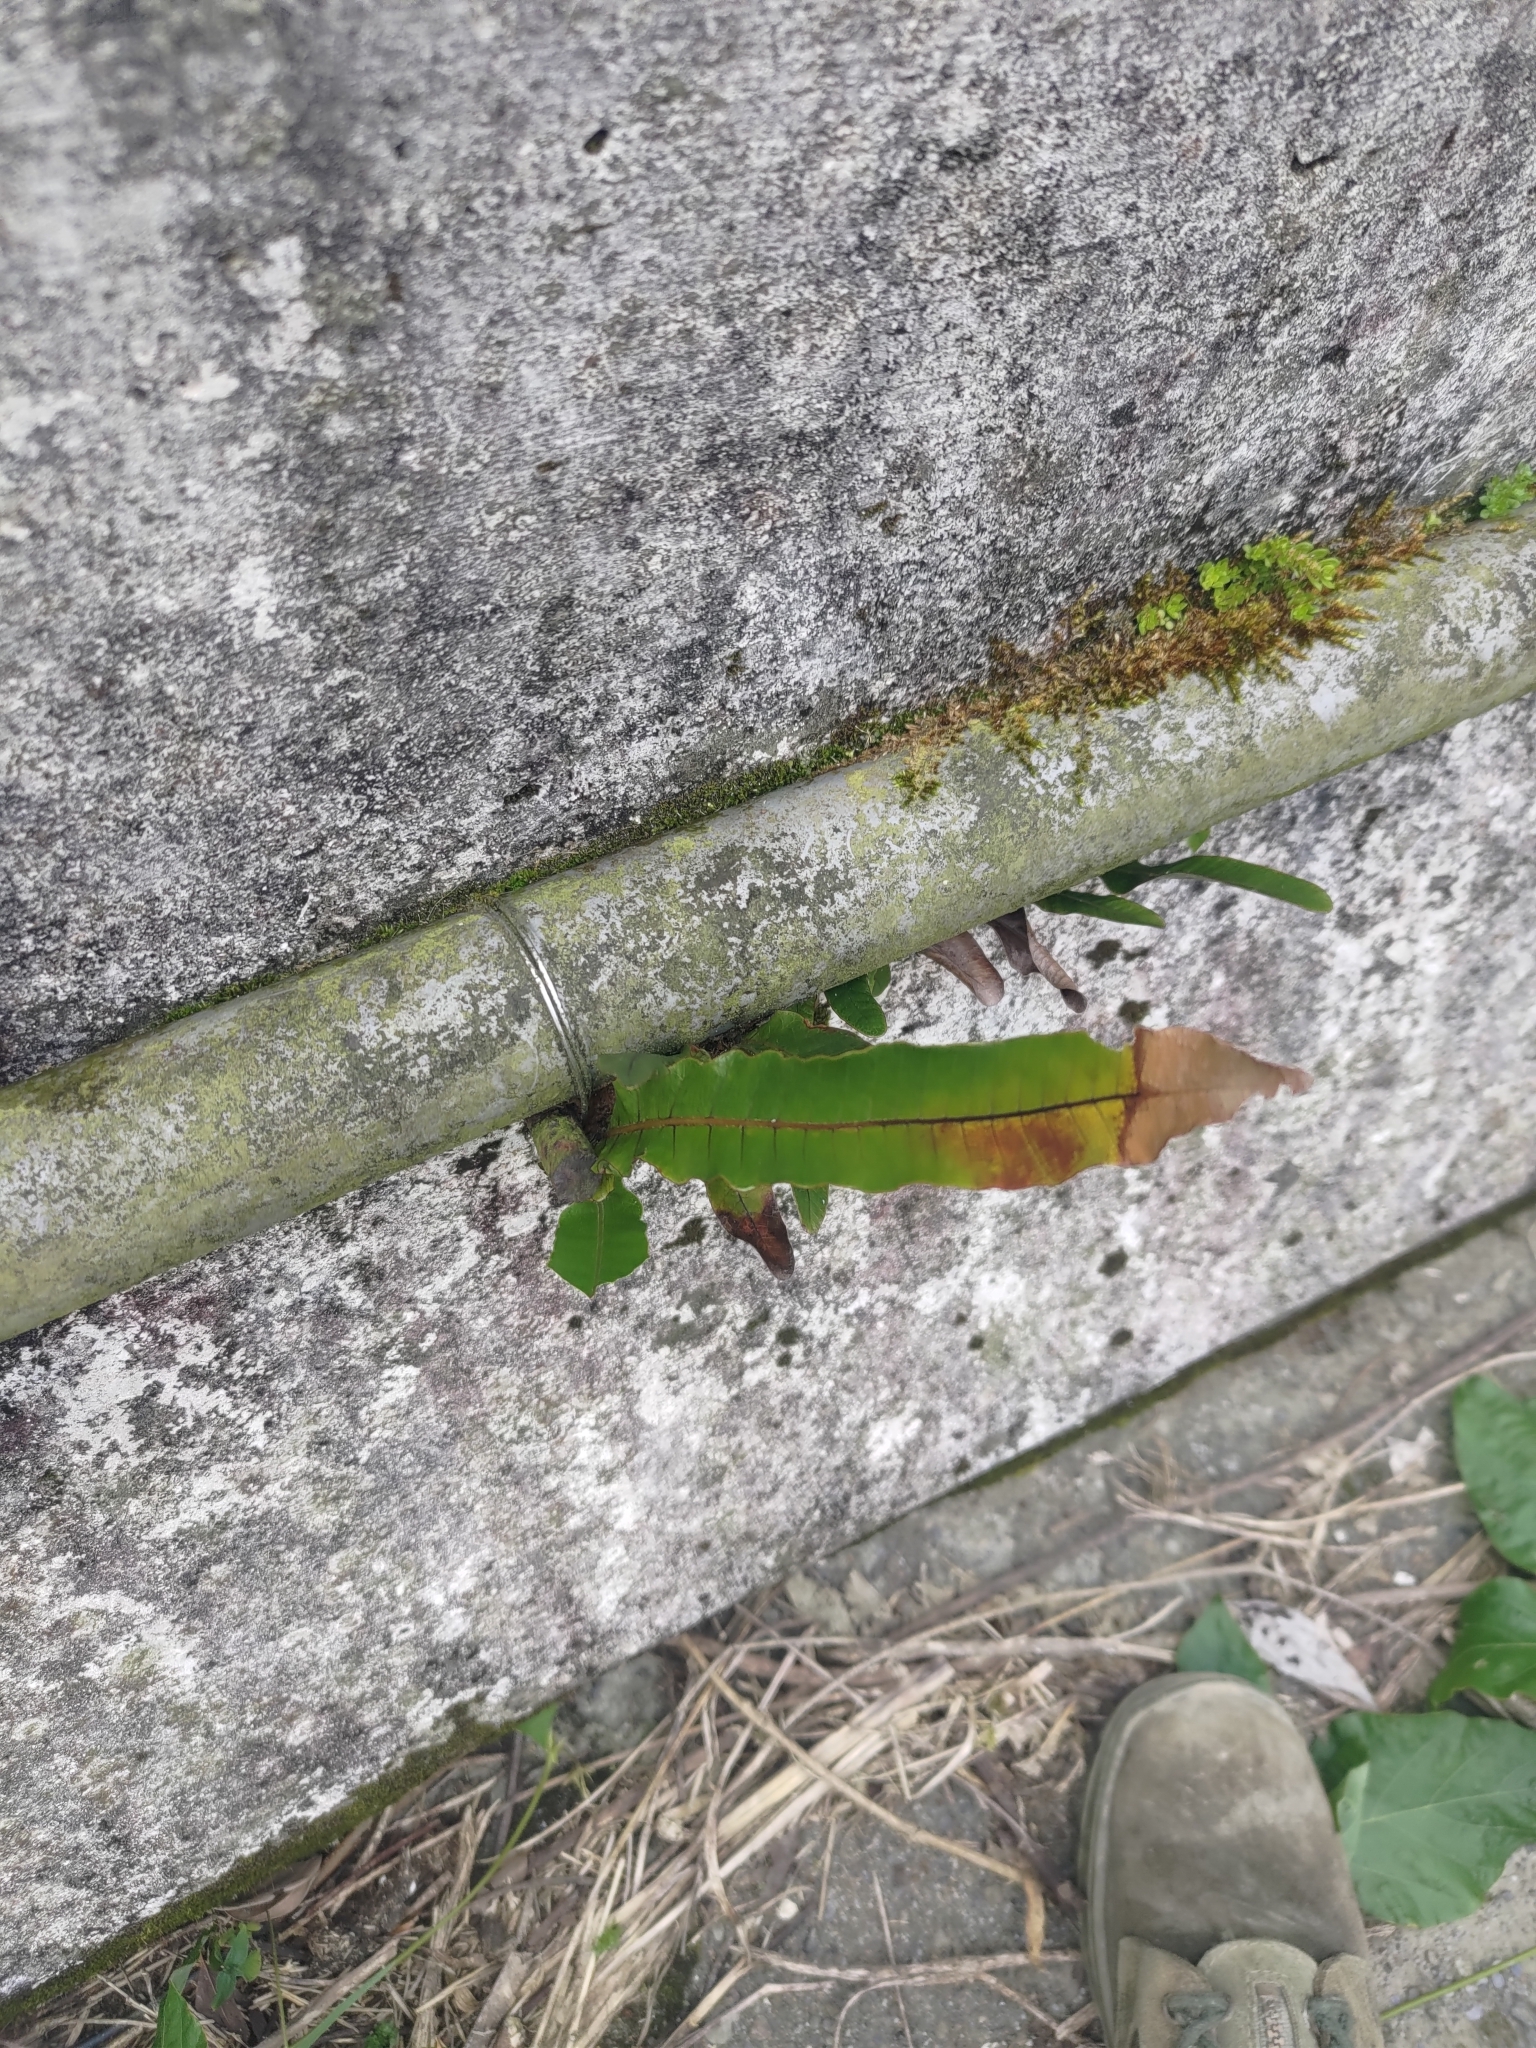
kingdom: Plantae
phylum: Tracheophyta
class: Polypodiopsida
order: Polypodiales
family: Polypodiaceae
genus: Drynaria
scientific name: Drynaria coronans
